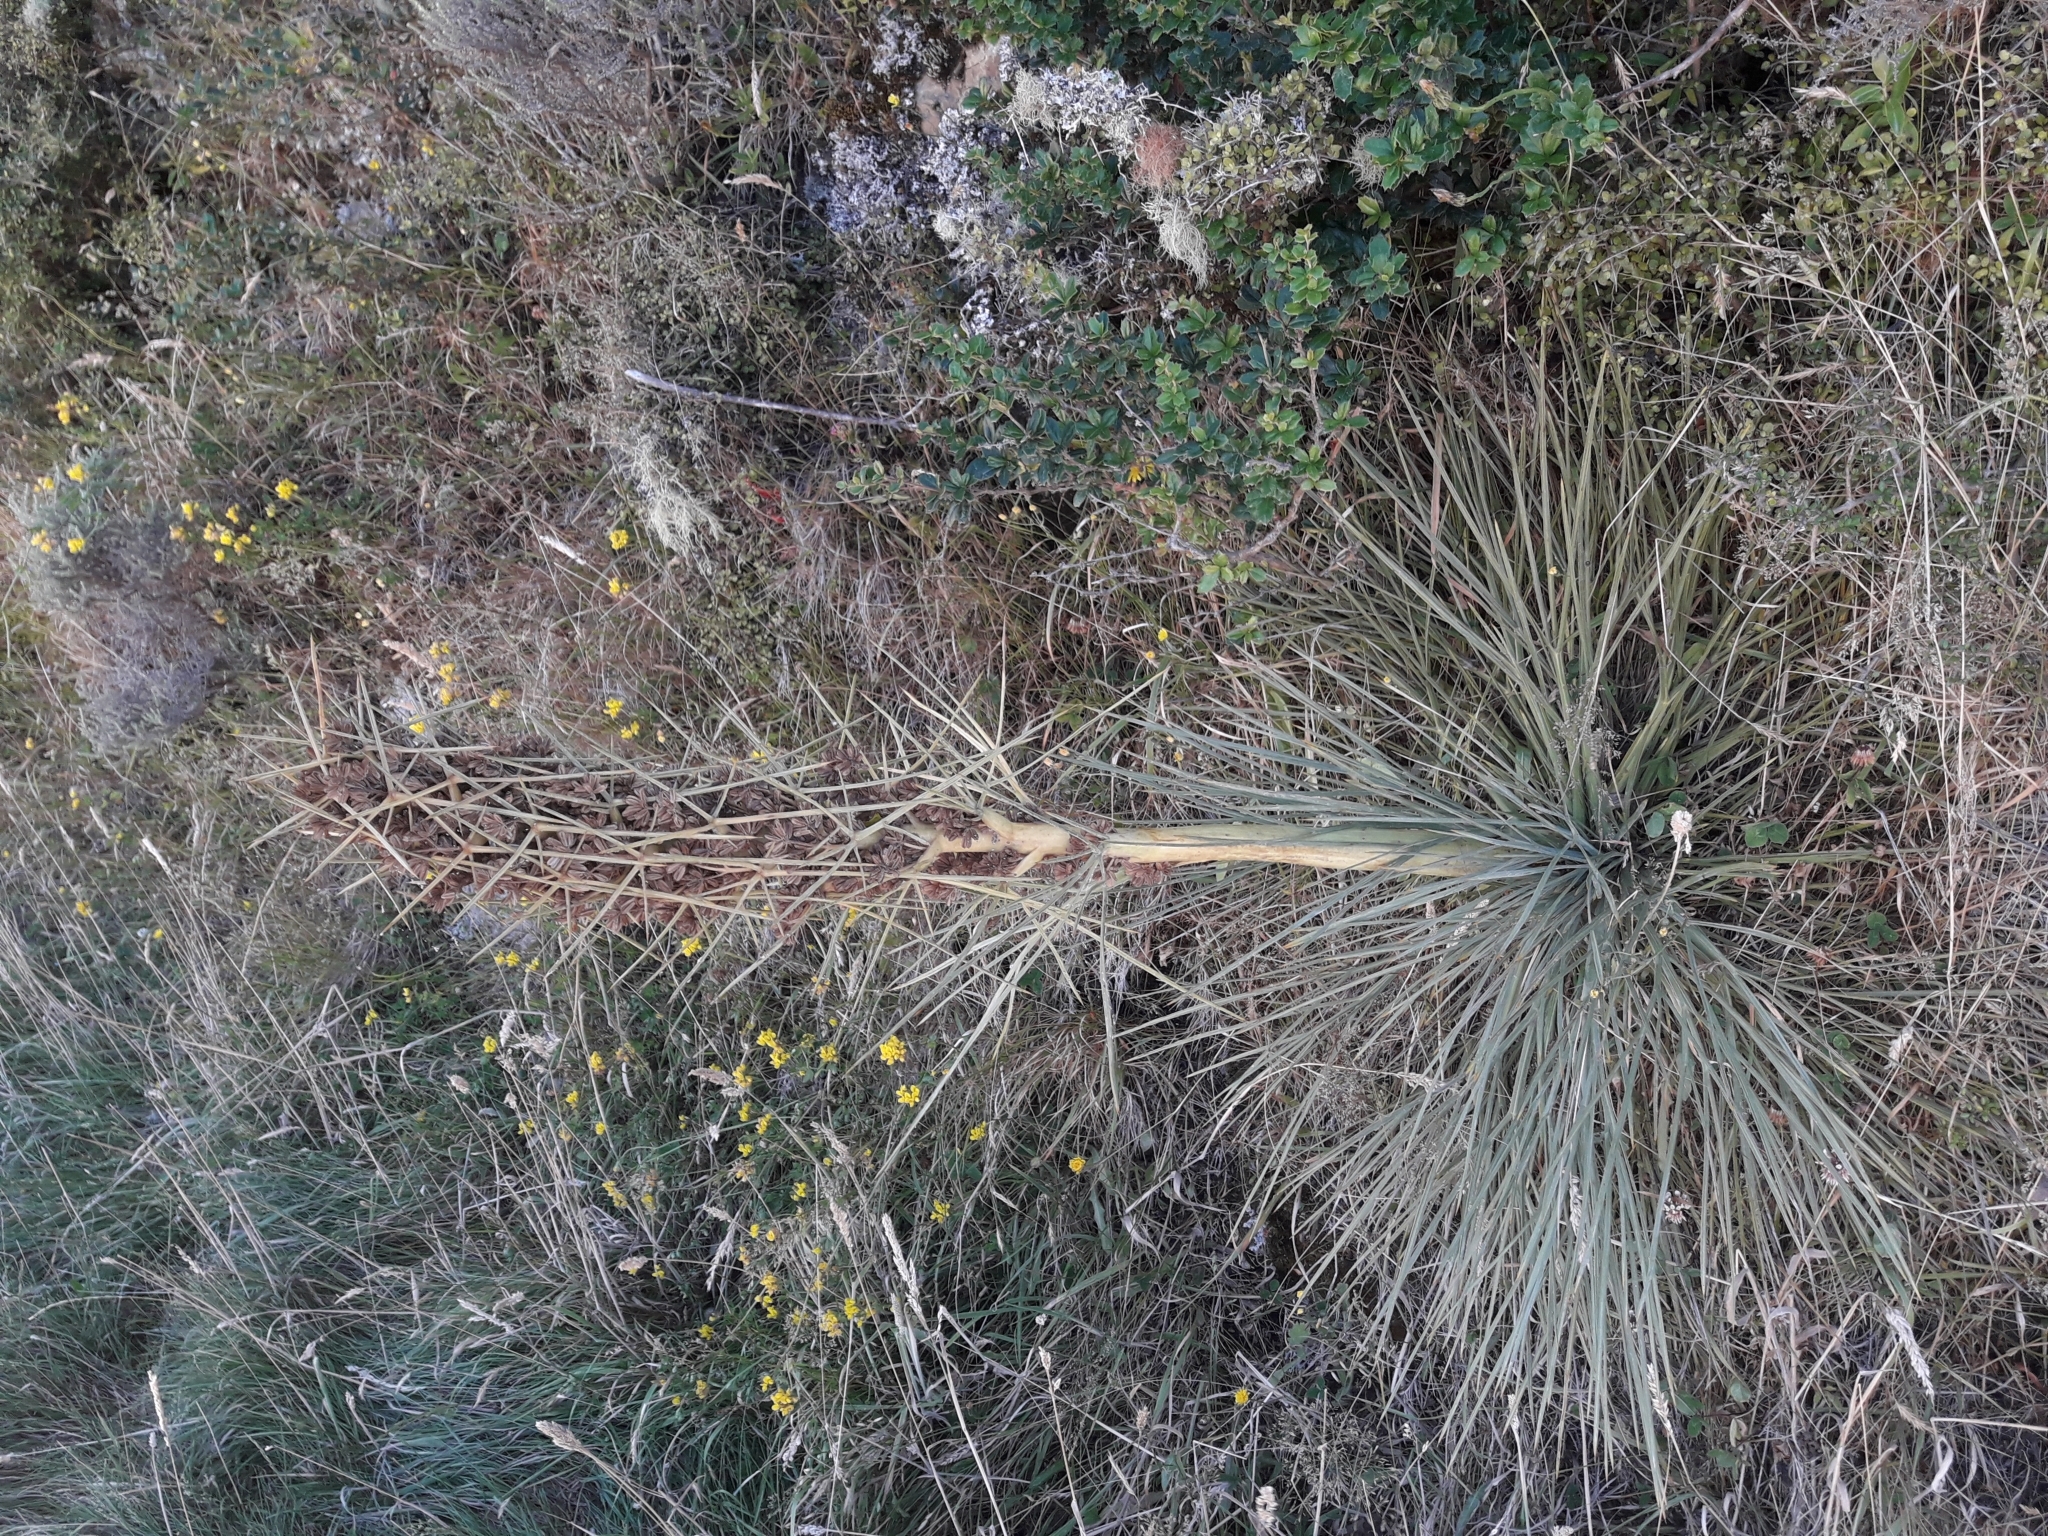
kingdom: Plantae
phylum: Tracheophyta
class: Magnoliopsida
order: Apiales
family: Apiaceae
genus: Aciphylla
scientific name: Aciphylla squarrosa
